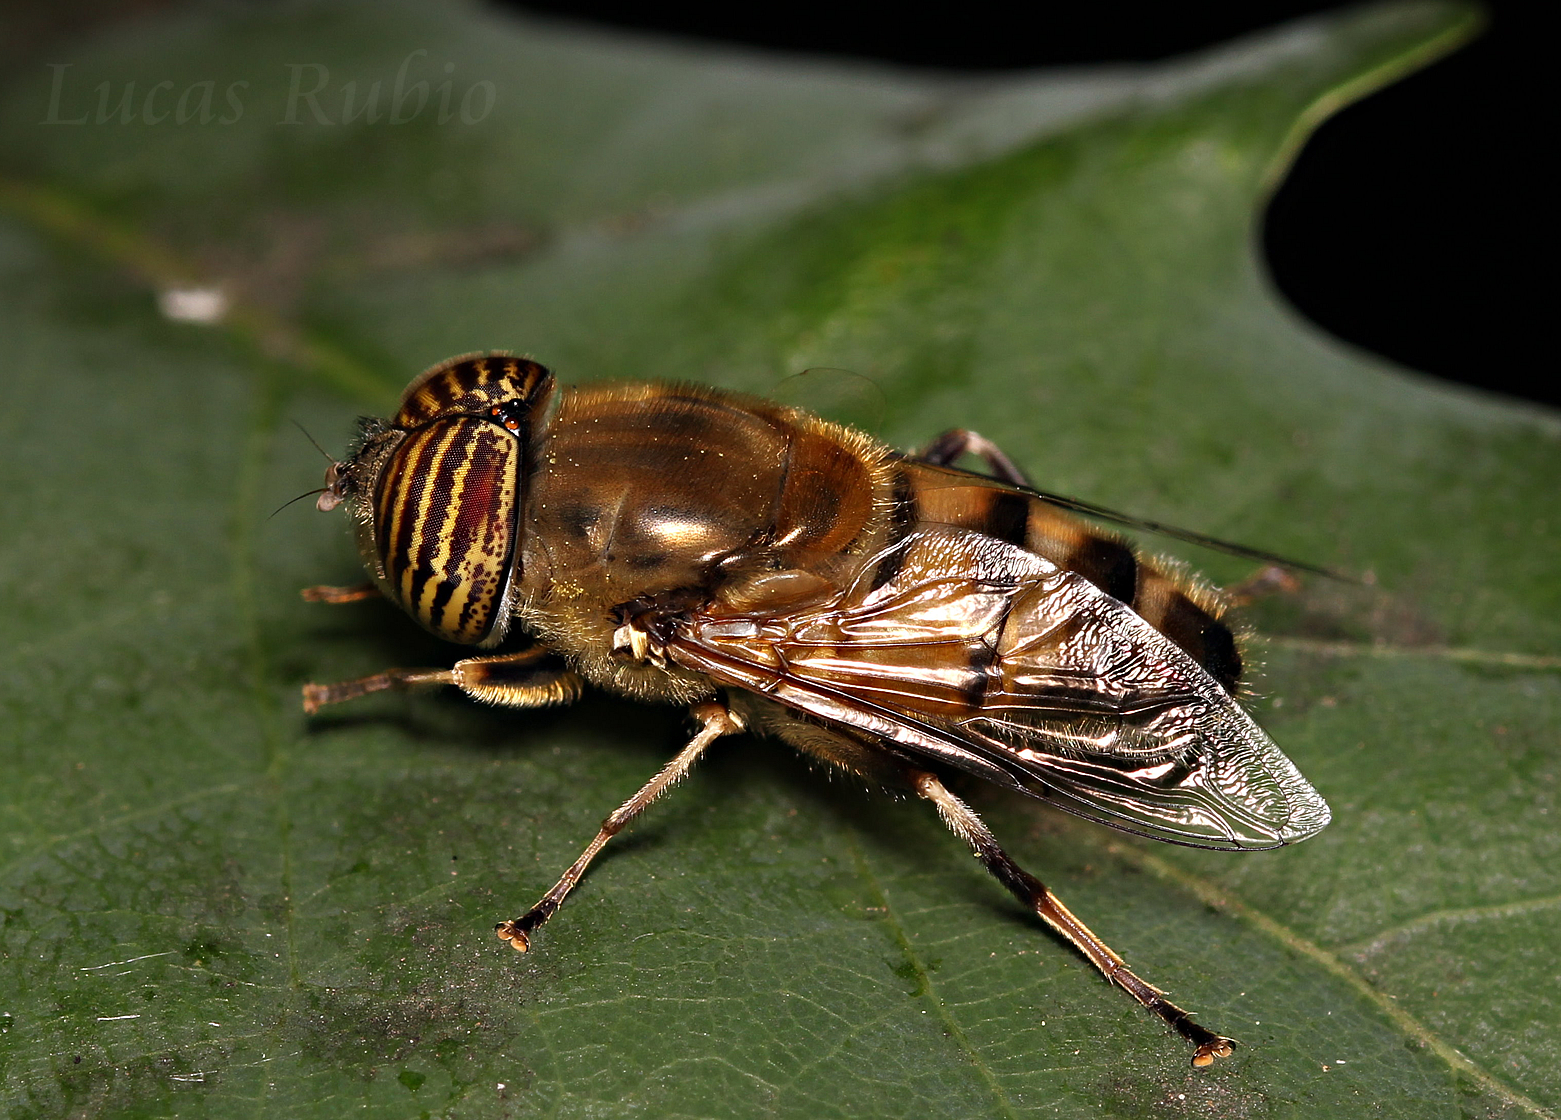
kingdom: Animalia
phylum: Arthropoda
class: Insecta
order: Diptera
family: Syrphidae
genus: Eristalinus
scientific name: Eristalinus taeniops
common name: Syrphid fly
